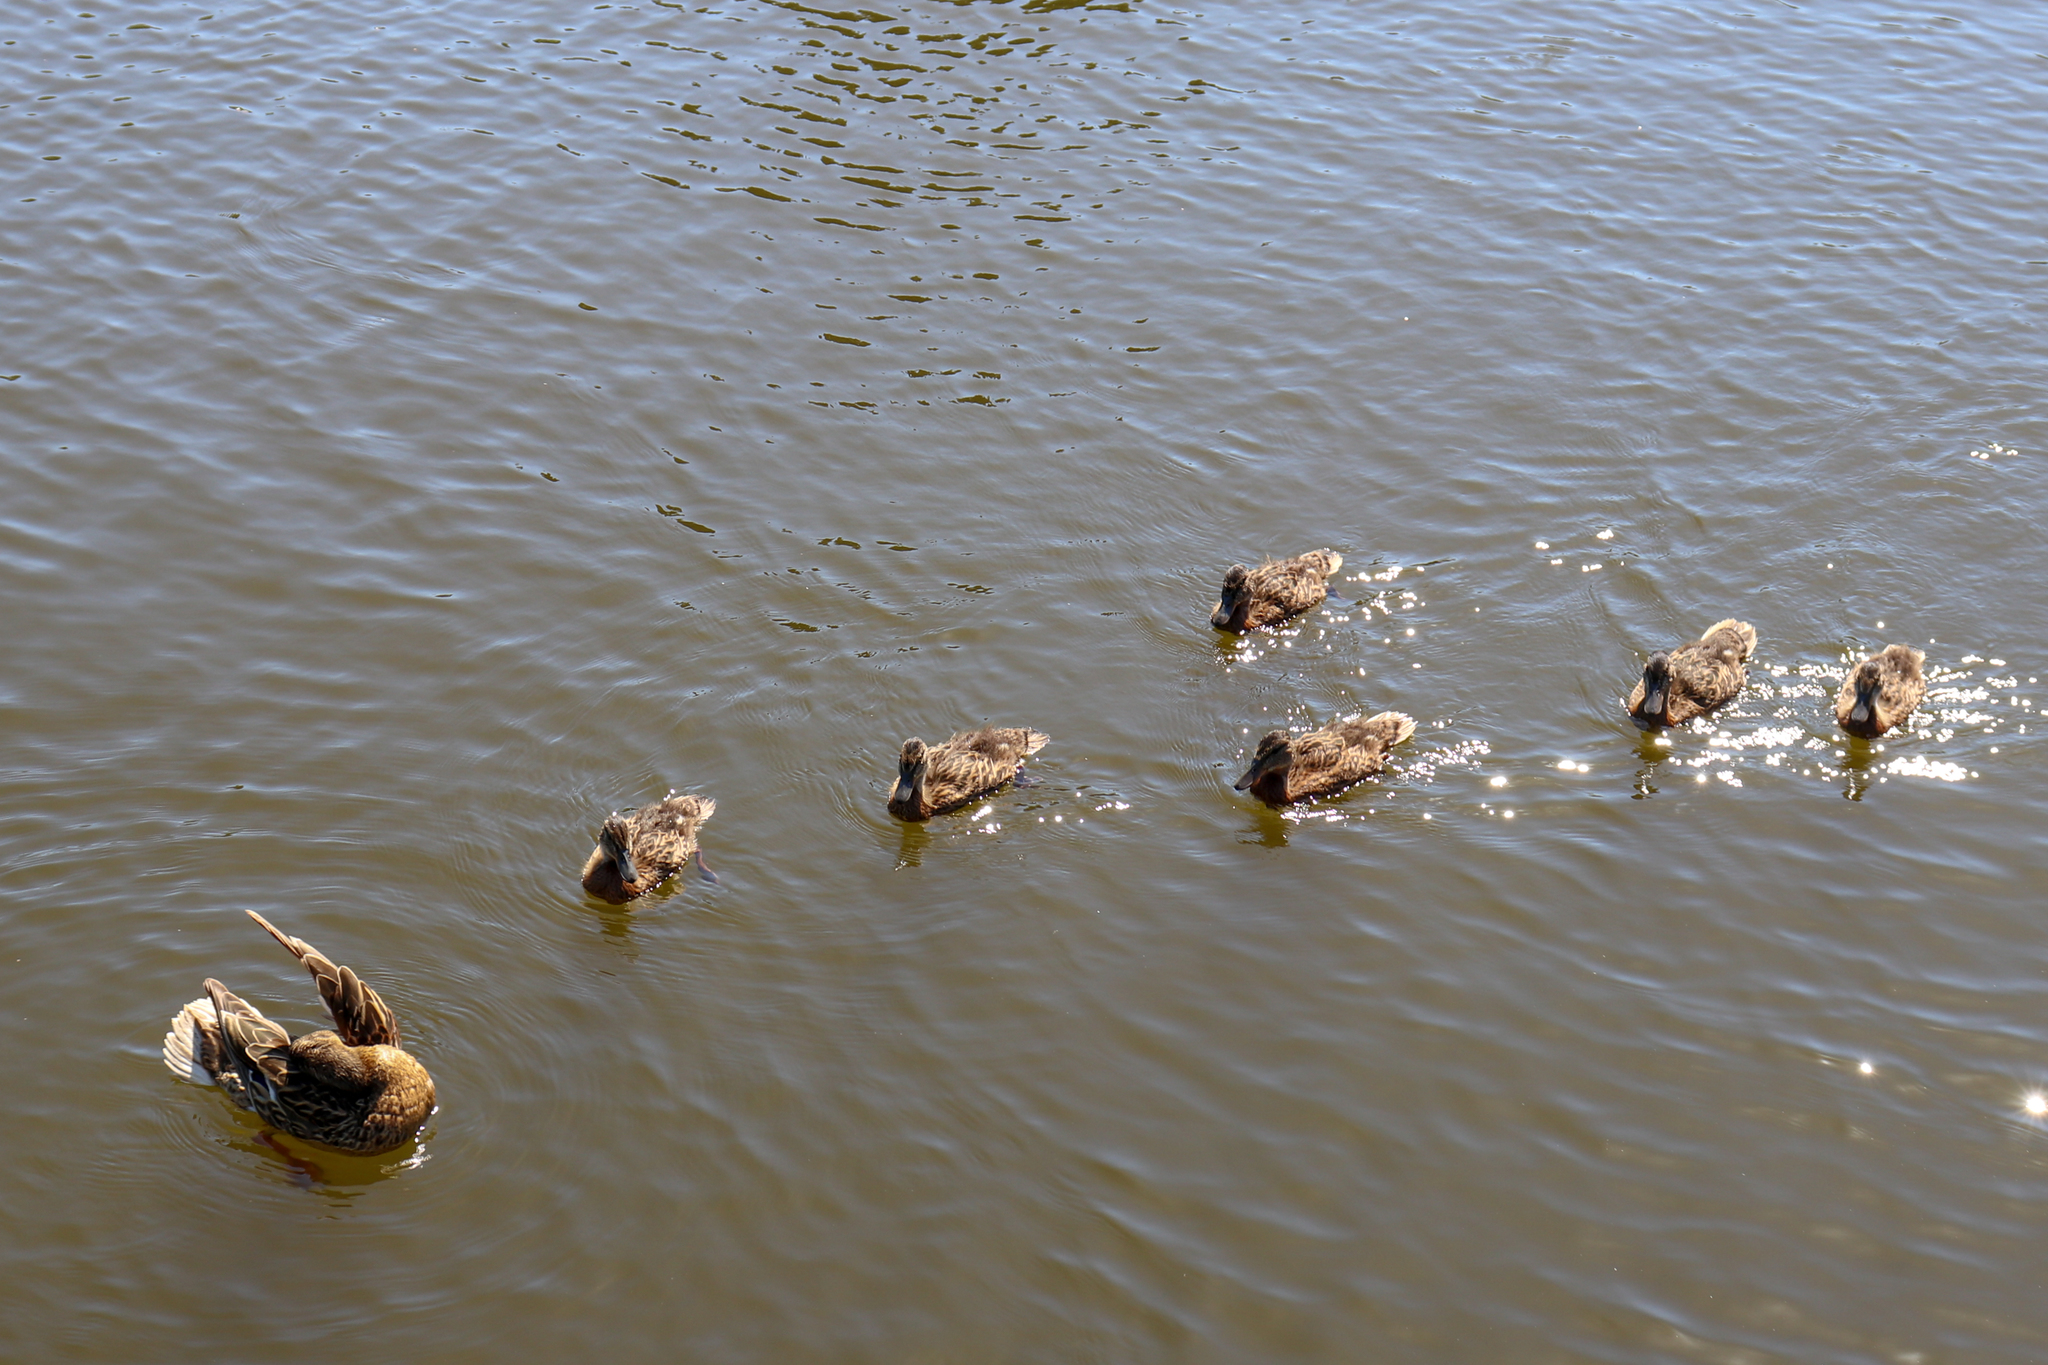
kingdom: Animalia
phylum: Chordata
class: Aves
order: Anseriformes
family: Anatidae
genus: Anas
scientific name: Anas platyrhynchos
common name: Mallard
